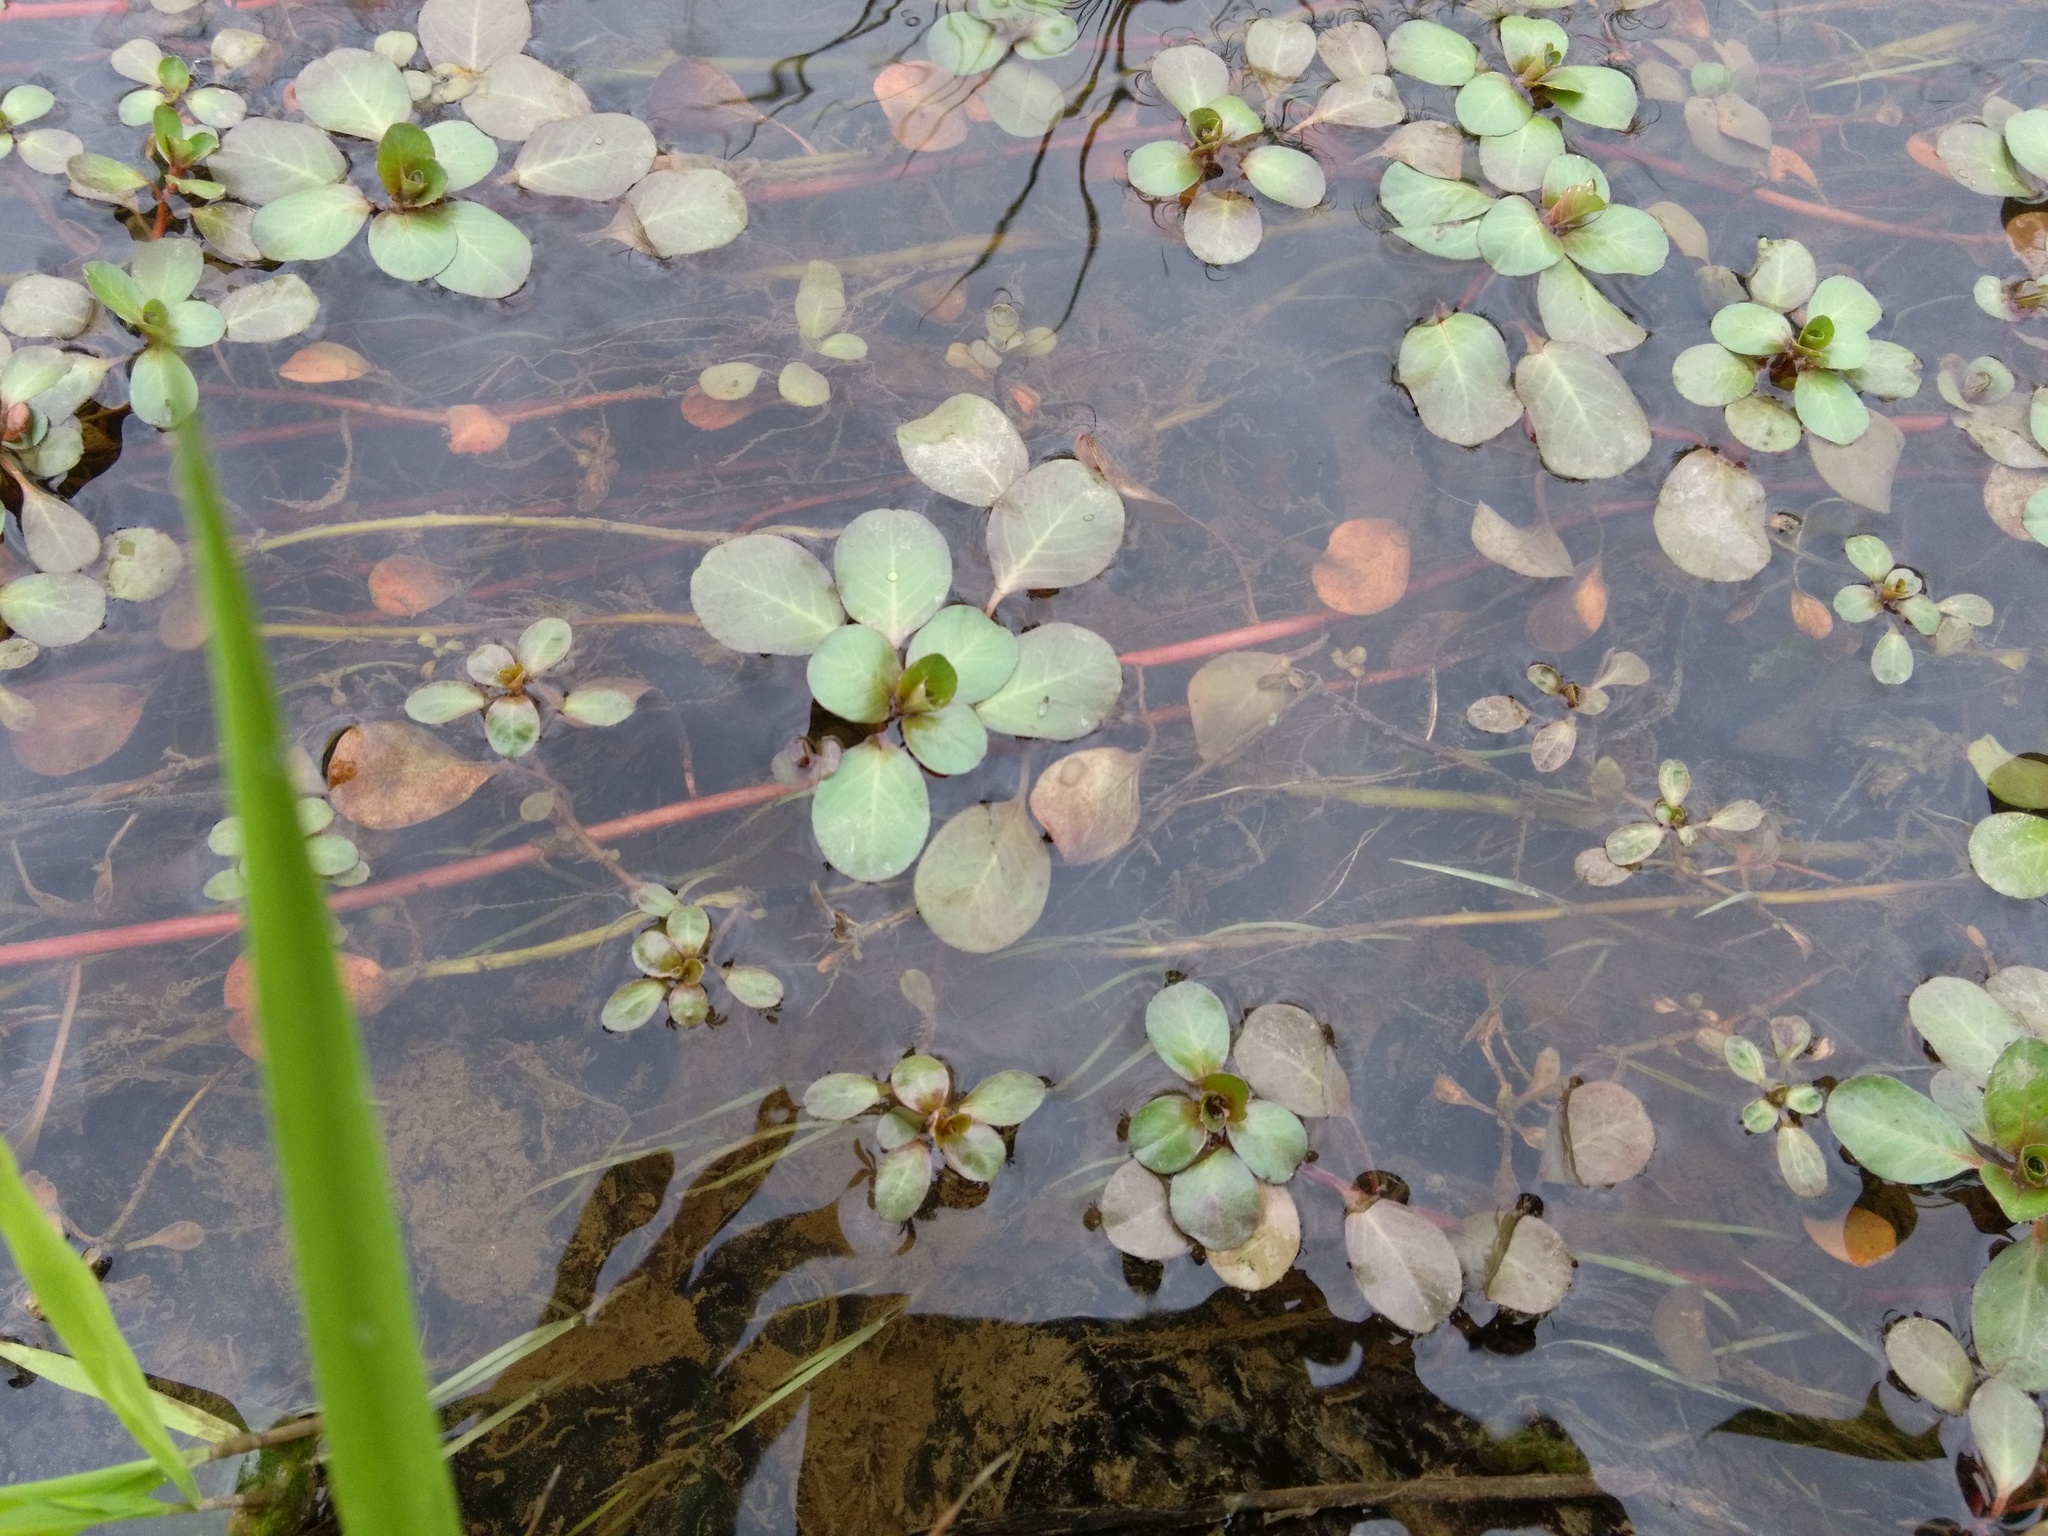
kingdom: Plantae
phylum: Tracheophyta
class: Magnoliopsida
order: Myrtales
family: Onagraceae
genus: Ludwigia
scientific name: Ludwigia peploides
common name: Floating primrose-willow
